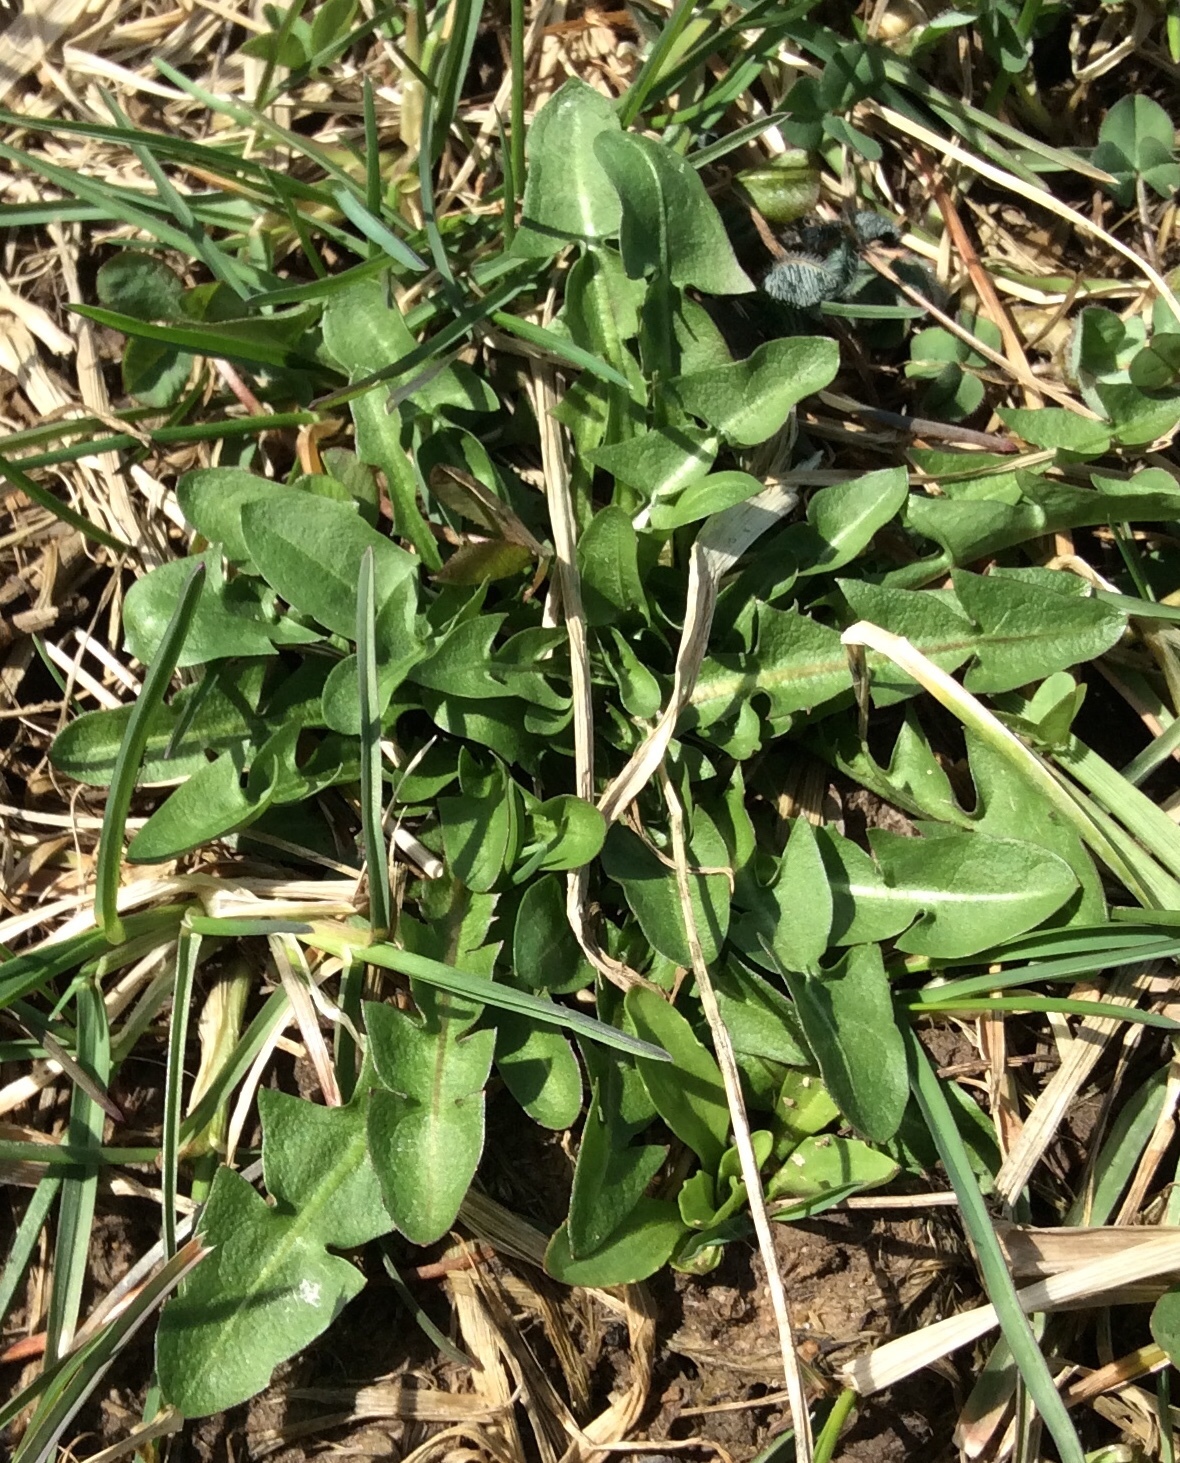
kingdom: Plantae
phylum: Tracheophyta
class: Magnoliopsida
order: Asterales
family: Asteraceae
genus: Taraxacum
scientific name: Taraxacum officinale
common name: Common dandelion
